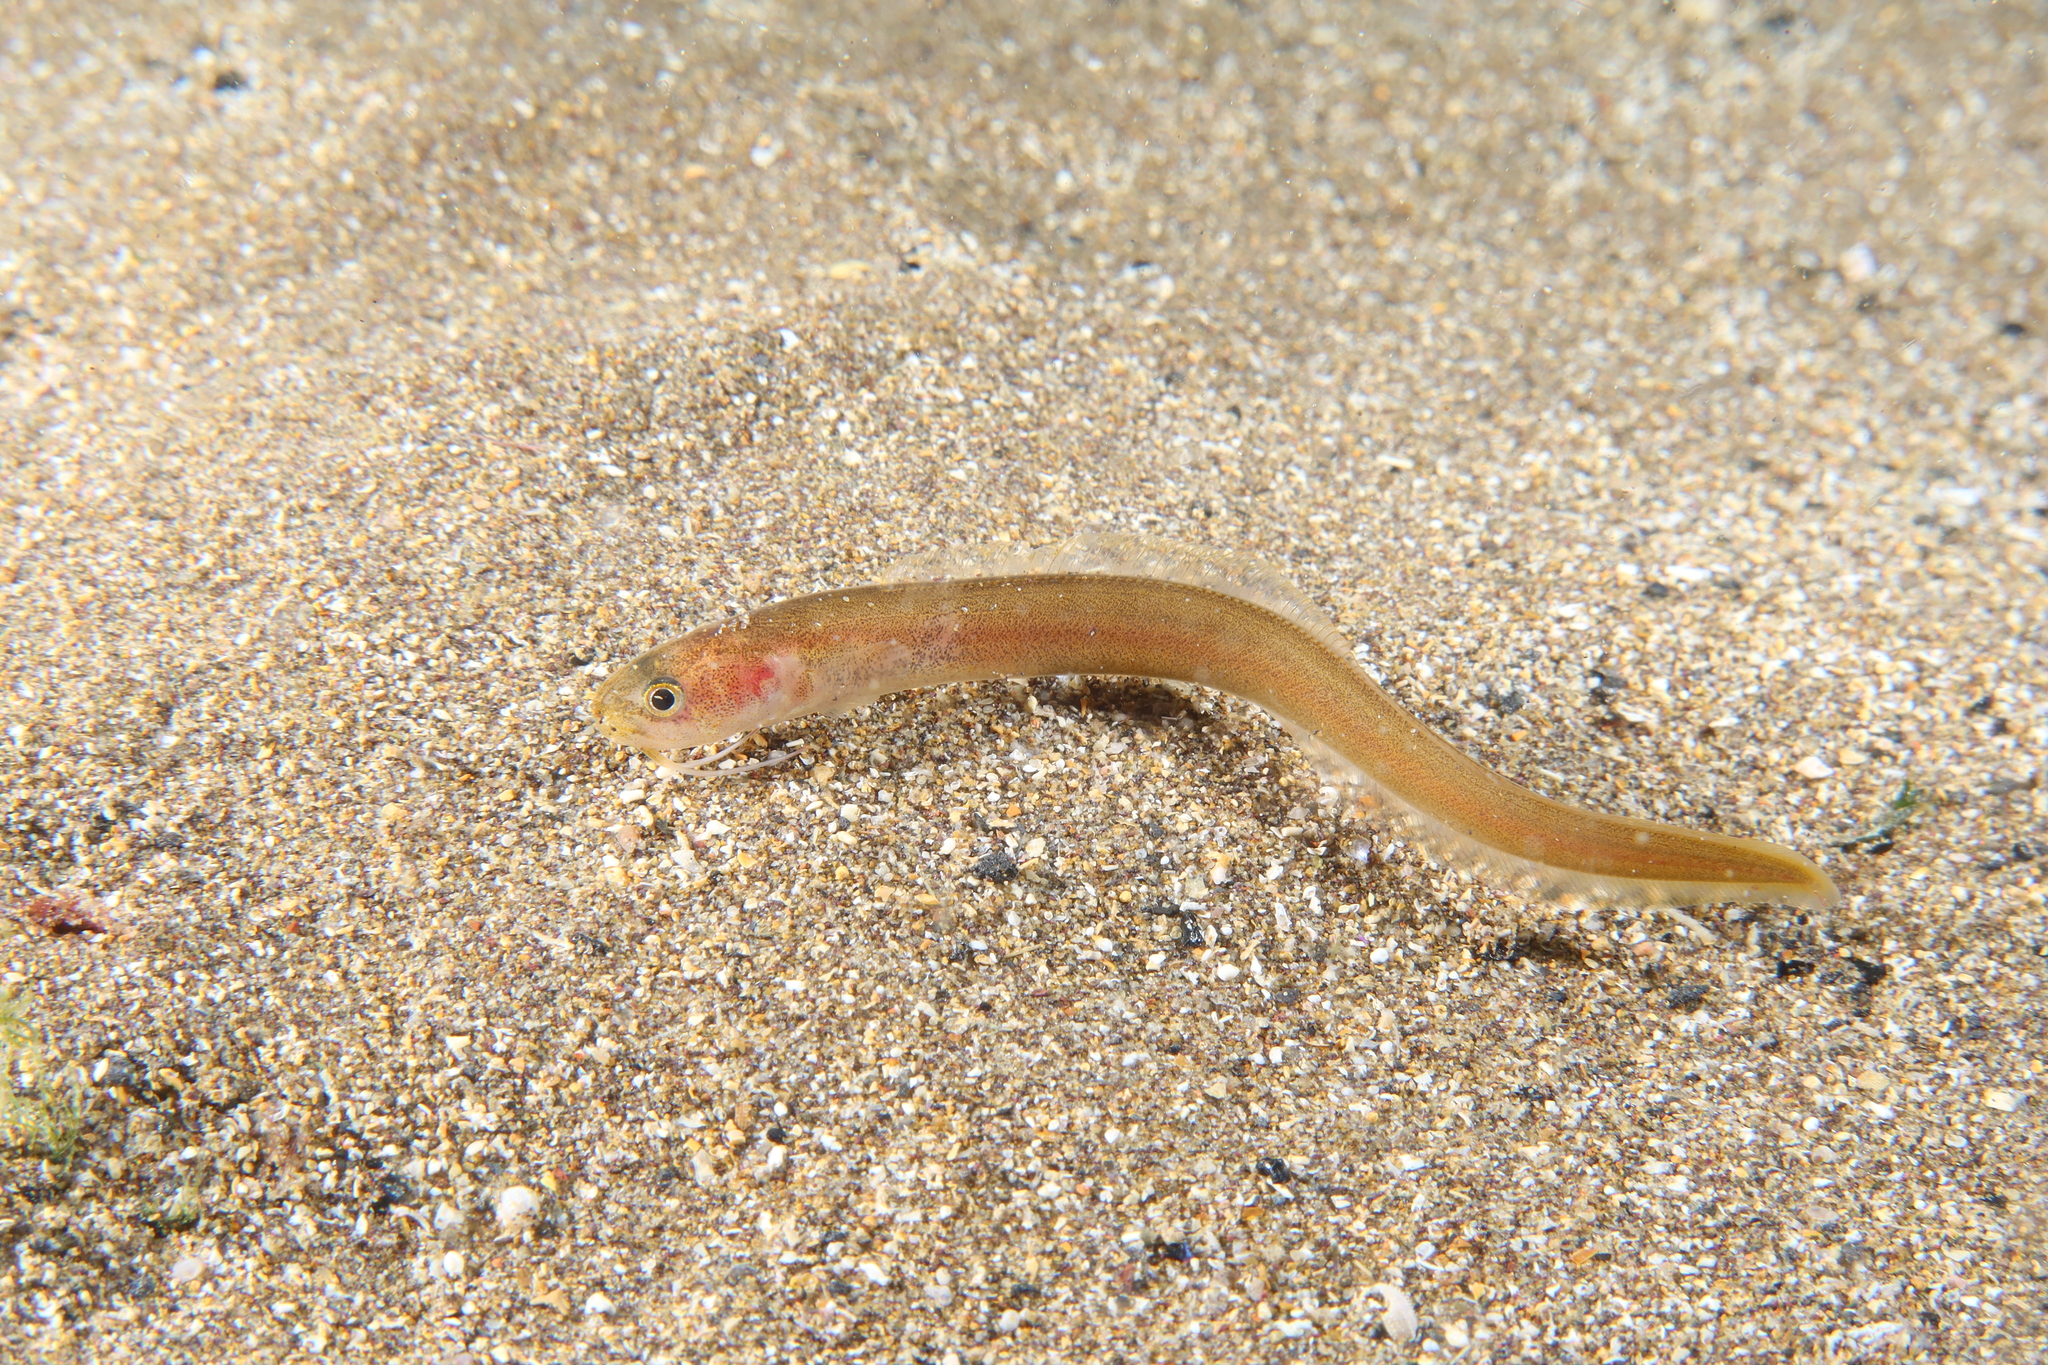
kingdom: Animalia
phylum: Chordata
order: Ophidiiformes
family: Ophidiidae
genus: Parophidion
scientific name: Parophidion vassali
